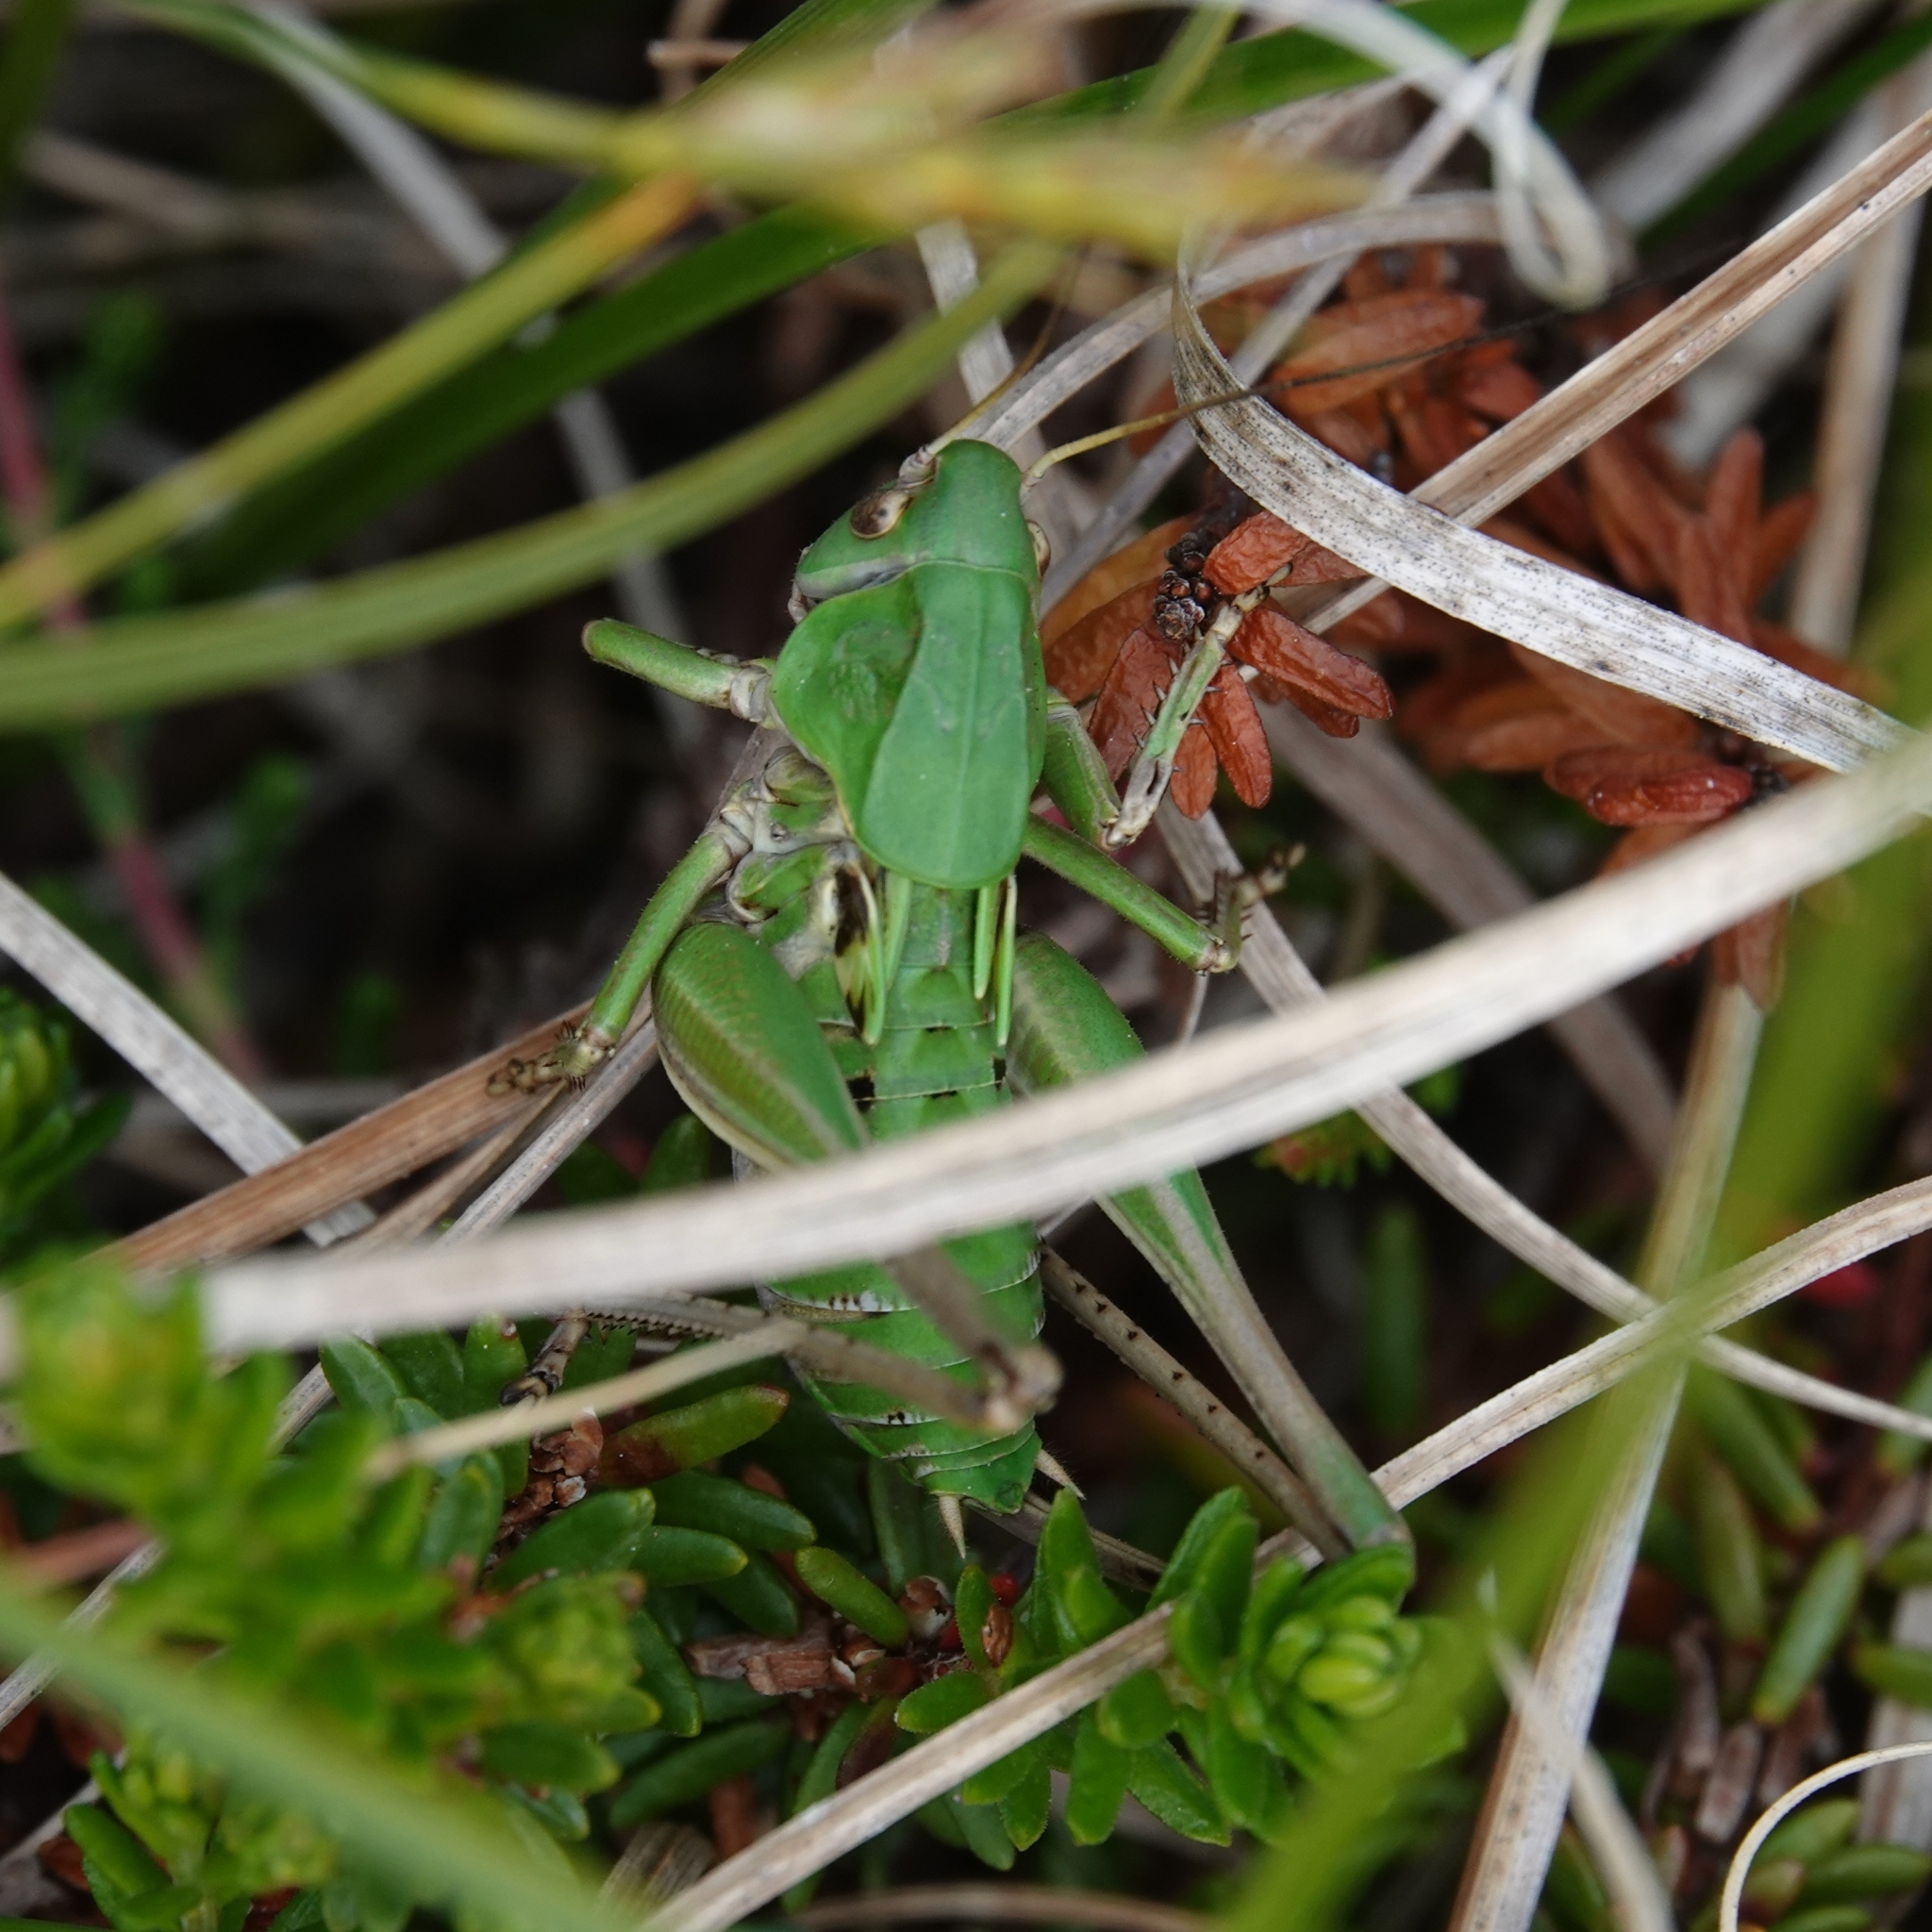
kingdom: Animalia
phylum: Arthropoda
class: Insecta
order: Orthoptera
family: Tettigoniidae
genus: Decticus
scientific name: Decticus verrucivorus
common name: Wart-biter
